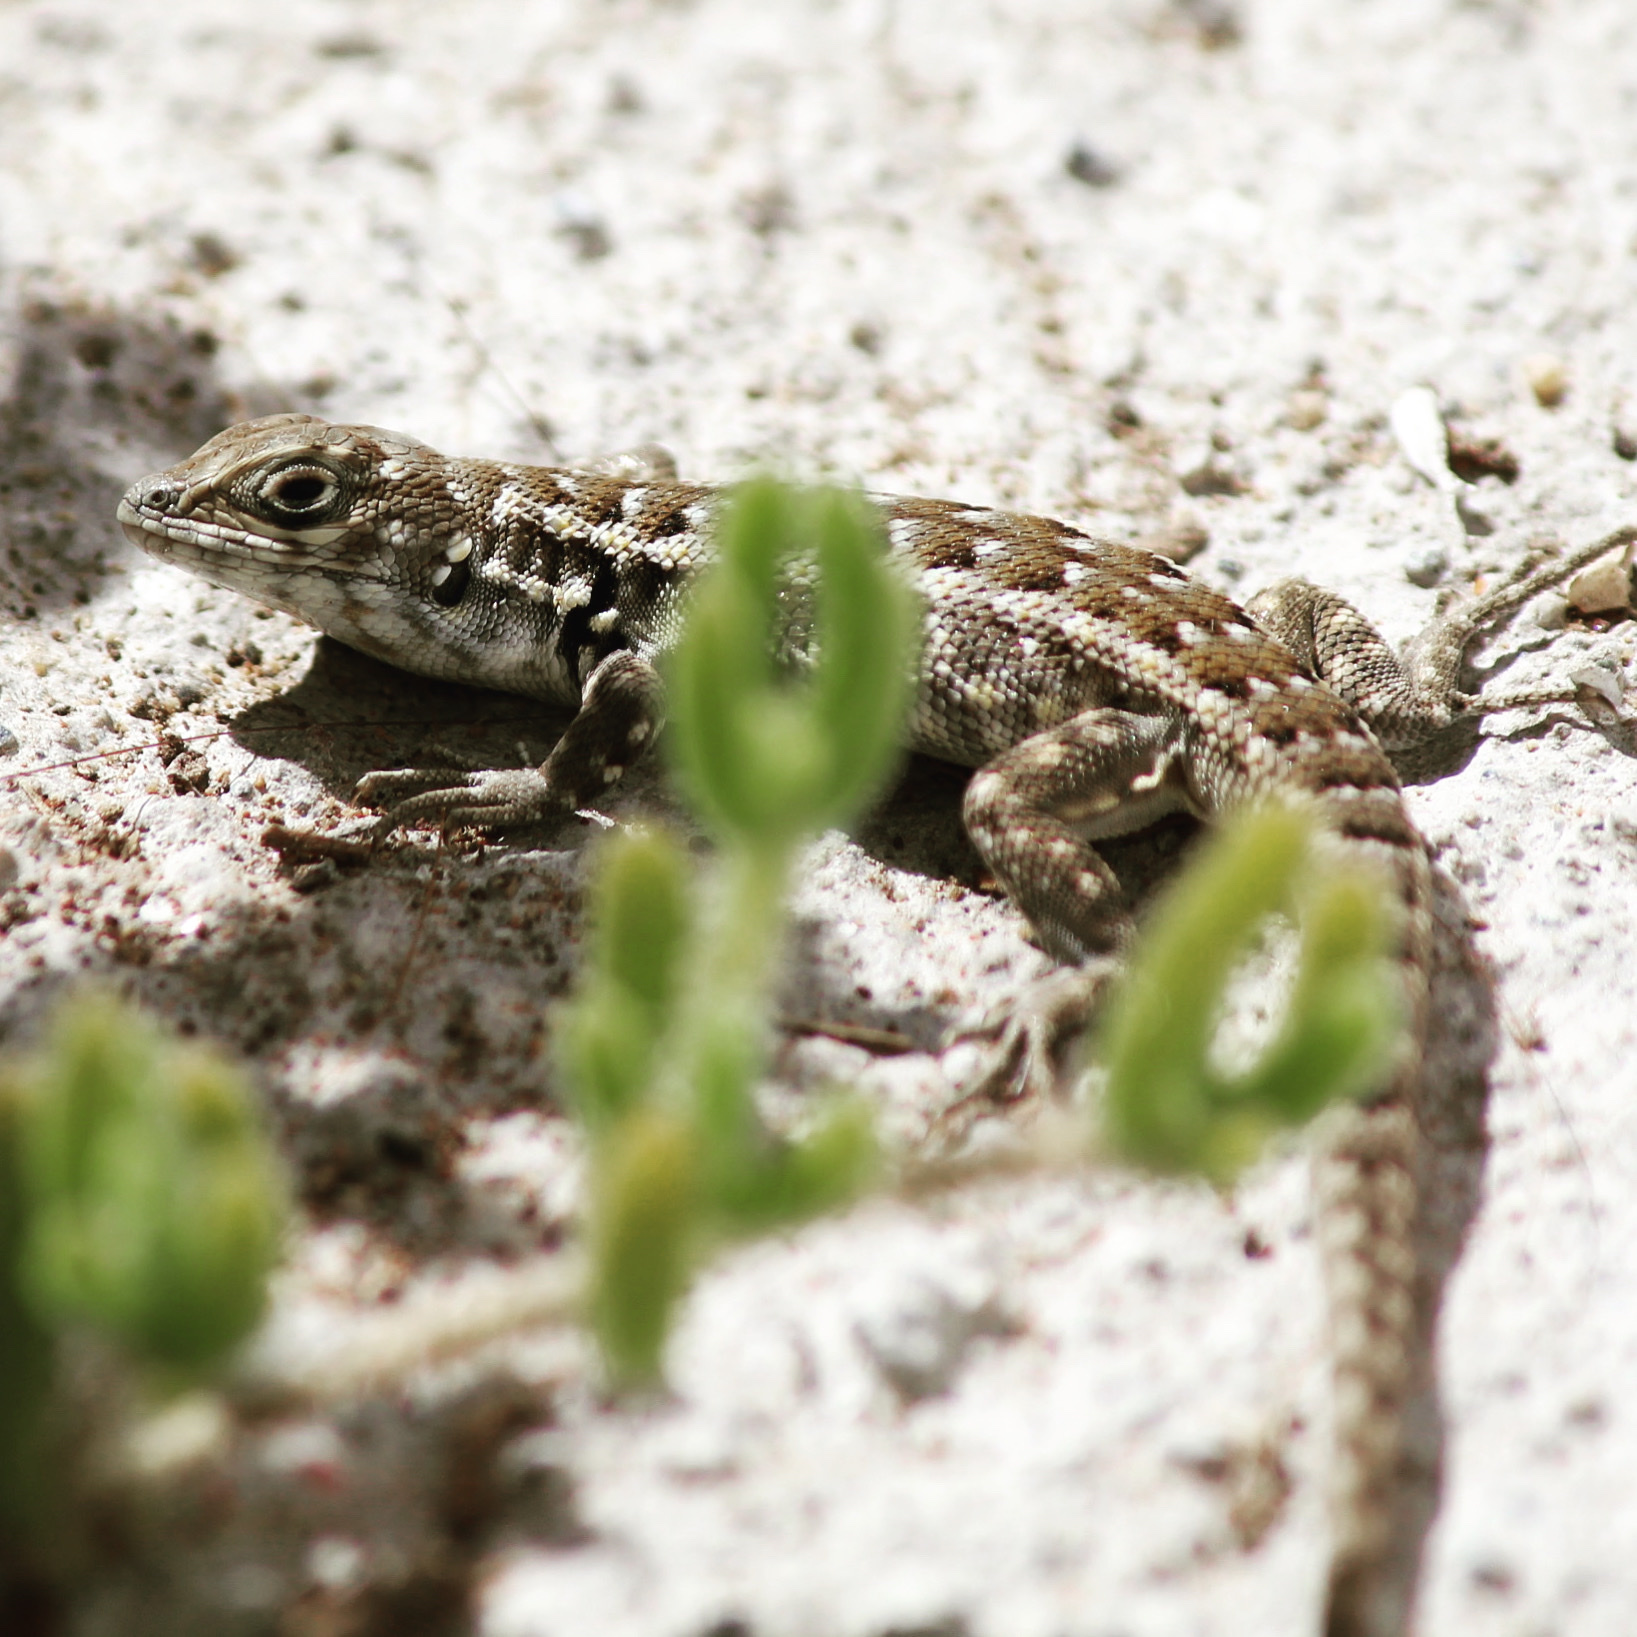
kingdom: Animalia
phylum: Chordata
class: Squamata
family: Liolaemidae
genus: Liolaemus
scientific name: Liolaemus zapallarensis
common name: Zapallaren tree iguana
